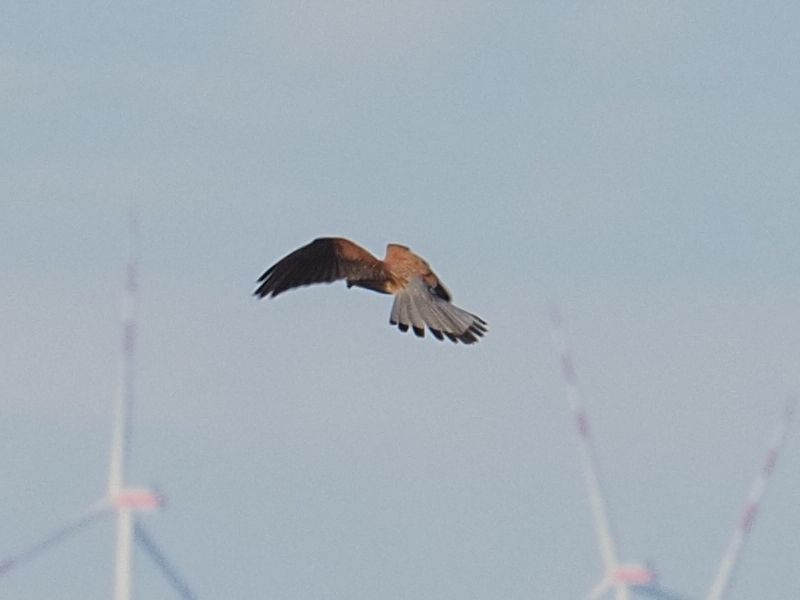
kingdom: Animalia
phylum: Chordata
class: Aves
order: Falconiformes
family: Falconidae
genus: Falco
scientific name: Falco tinnunculus
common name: Common kestrel
